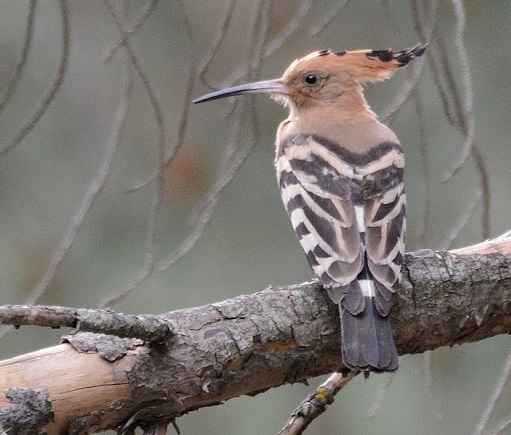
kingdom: Animalia
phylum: Chordata
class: Aves
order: Bucerotiformes
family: Upupidae
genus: Upupa
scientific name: Upupa epops
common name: Eurasian hoopoe
